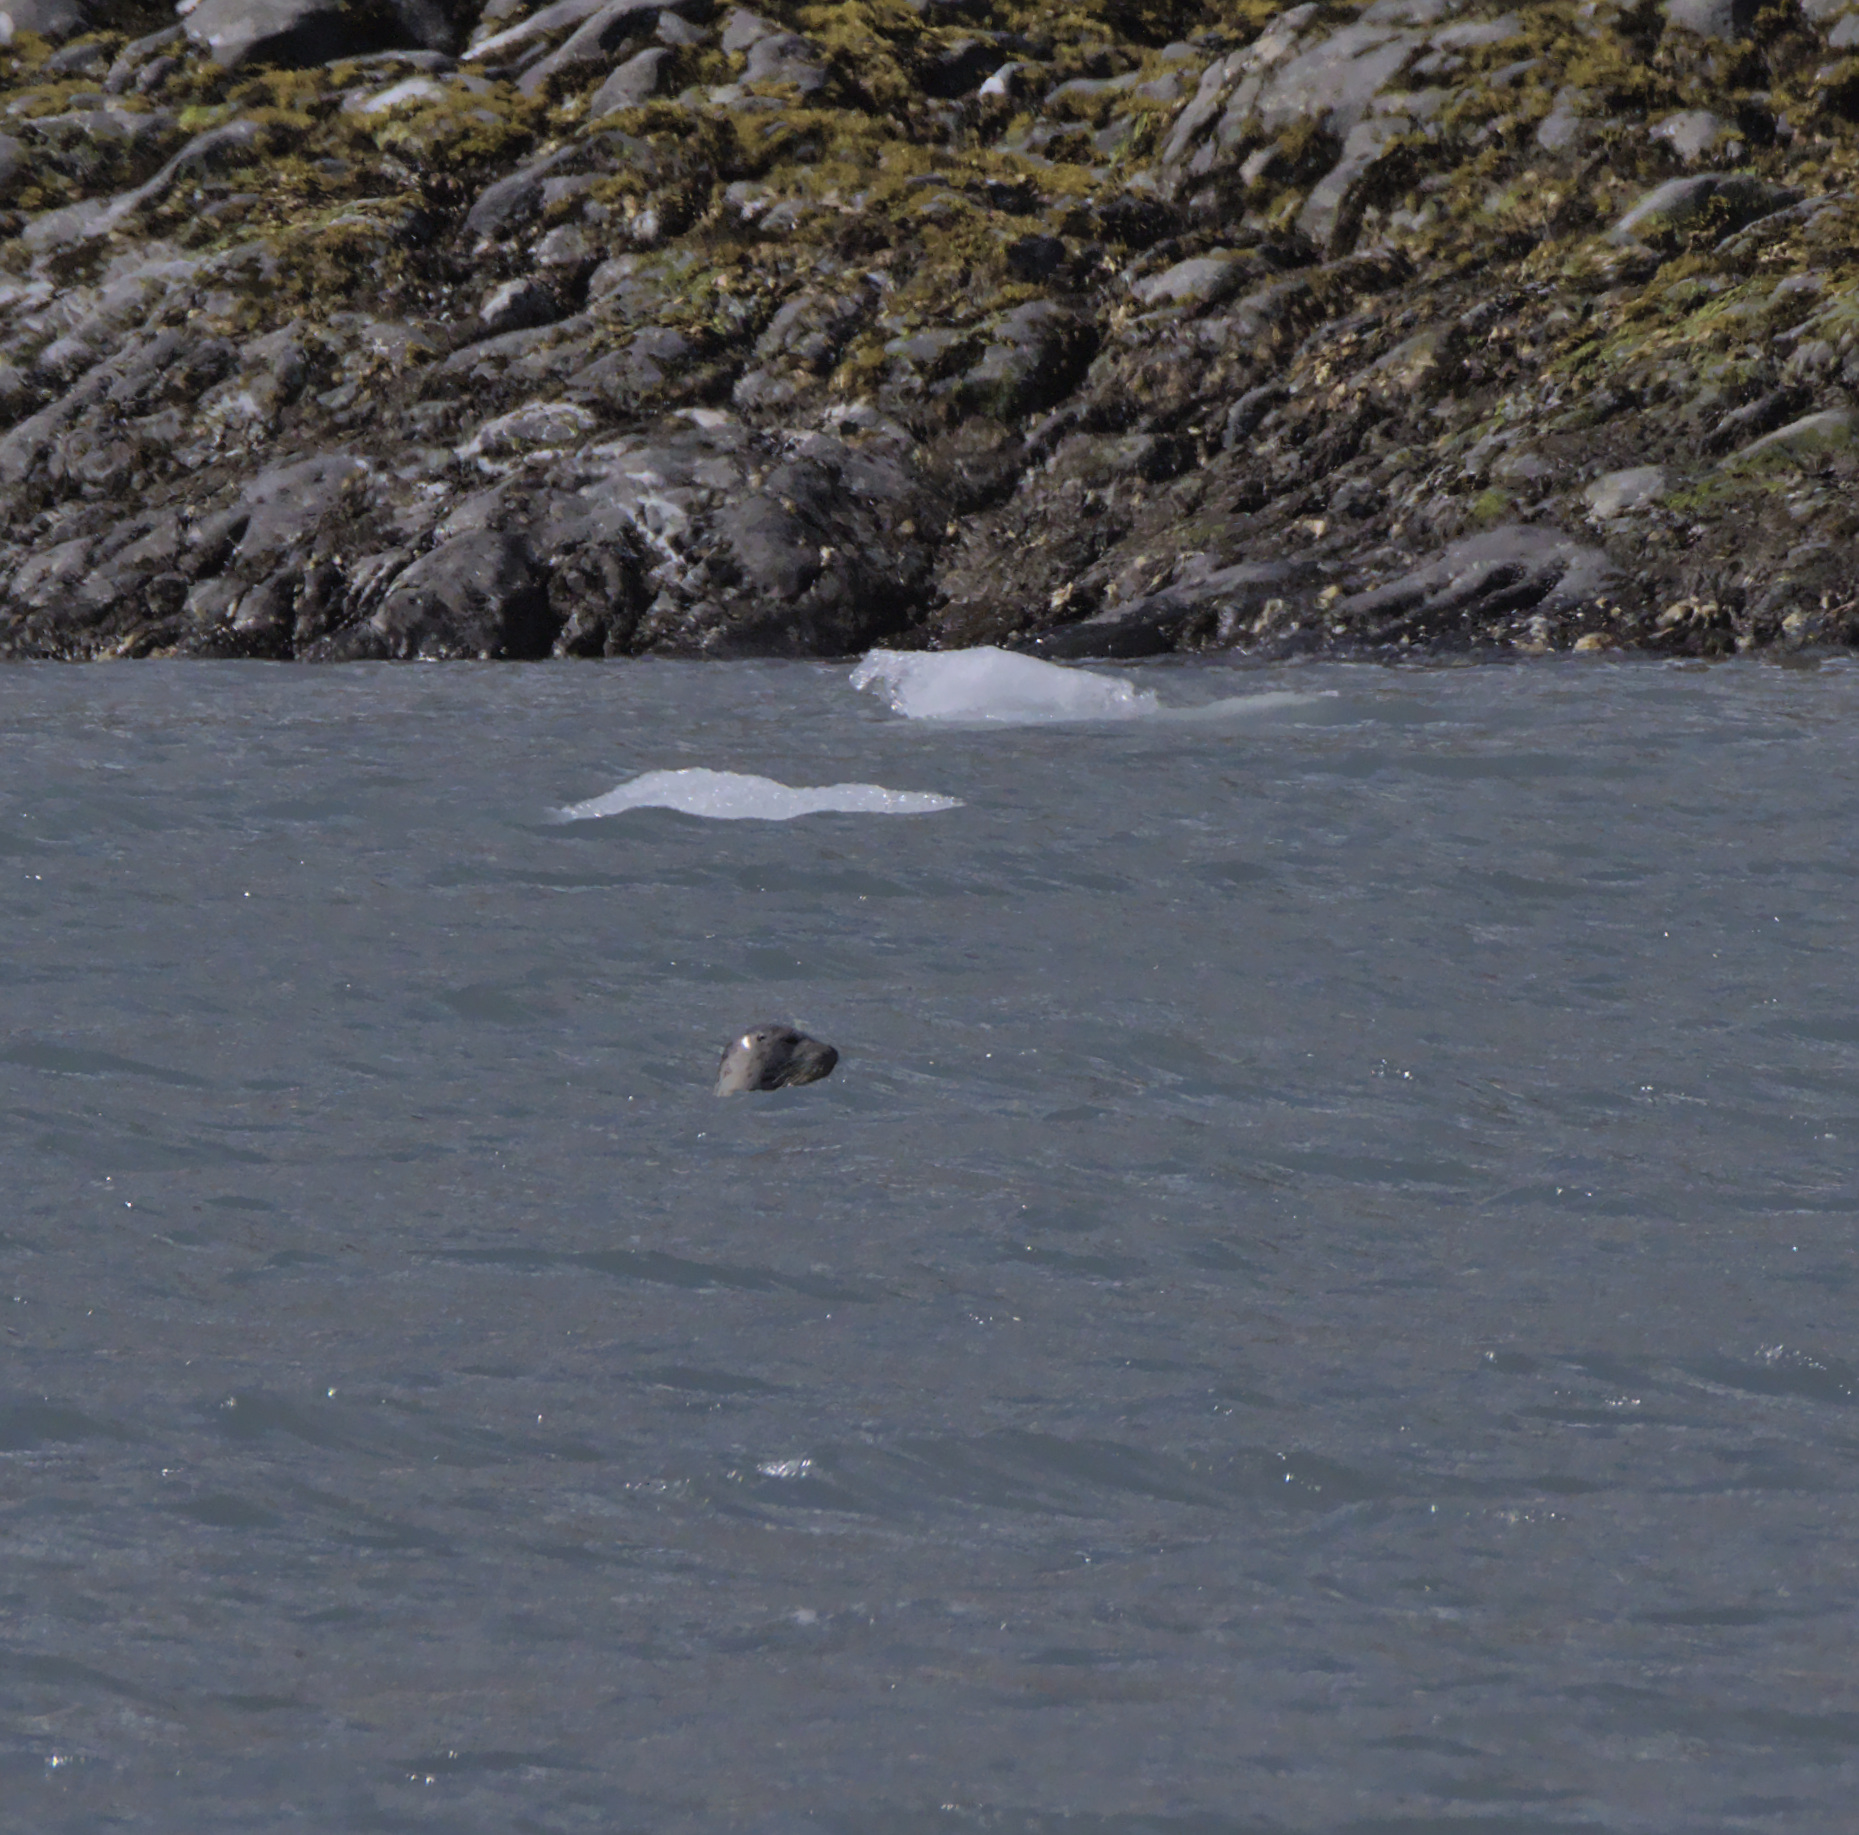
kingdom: Animalia
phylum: Chordata
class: Mammalia
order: Carnivora
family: Phocidae
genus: Phoca
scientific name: Phoca vitulina
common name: Harbor seal
